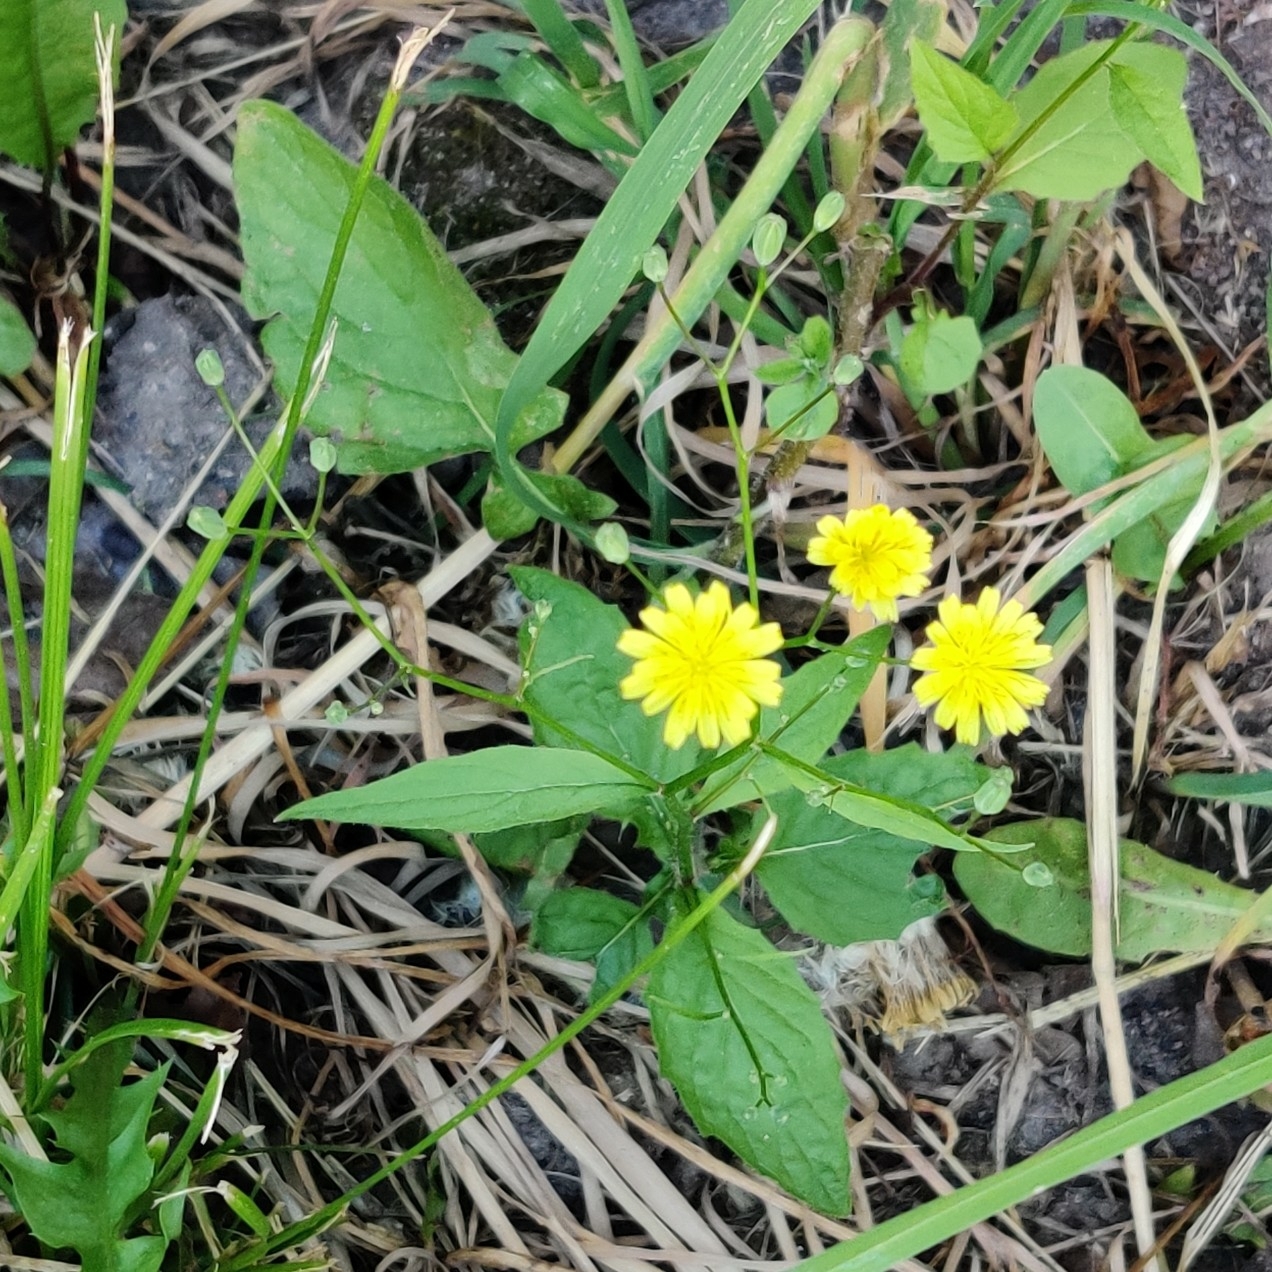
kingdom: Plantae
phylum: Tracheophyta
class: Magnoliopsida
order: Asterales
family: Asteraceae
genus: Lapsana
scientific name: Lapsana communis
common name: Nipplewort
